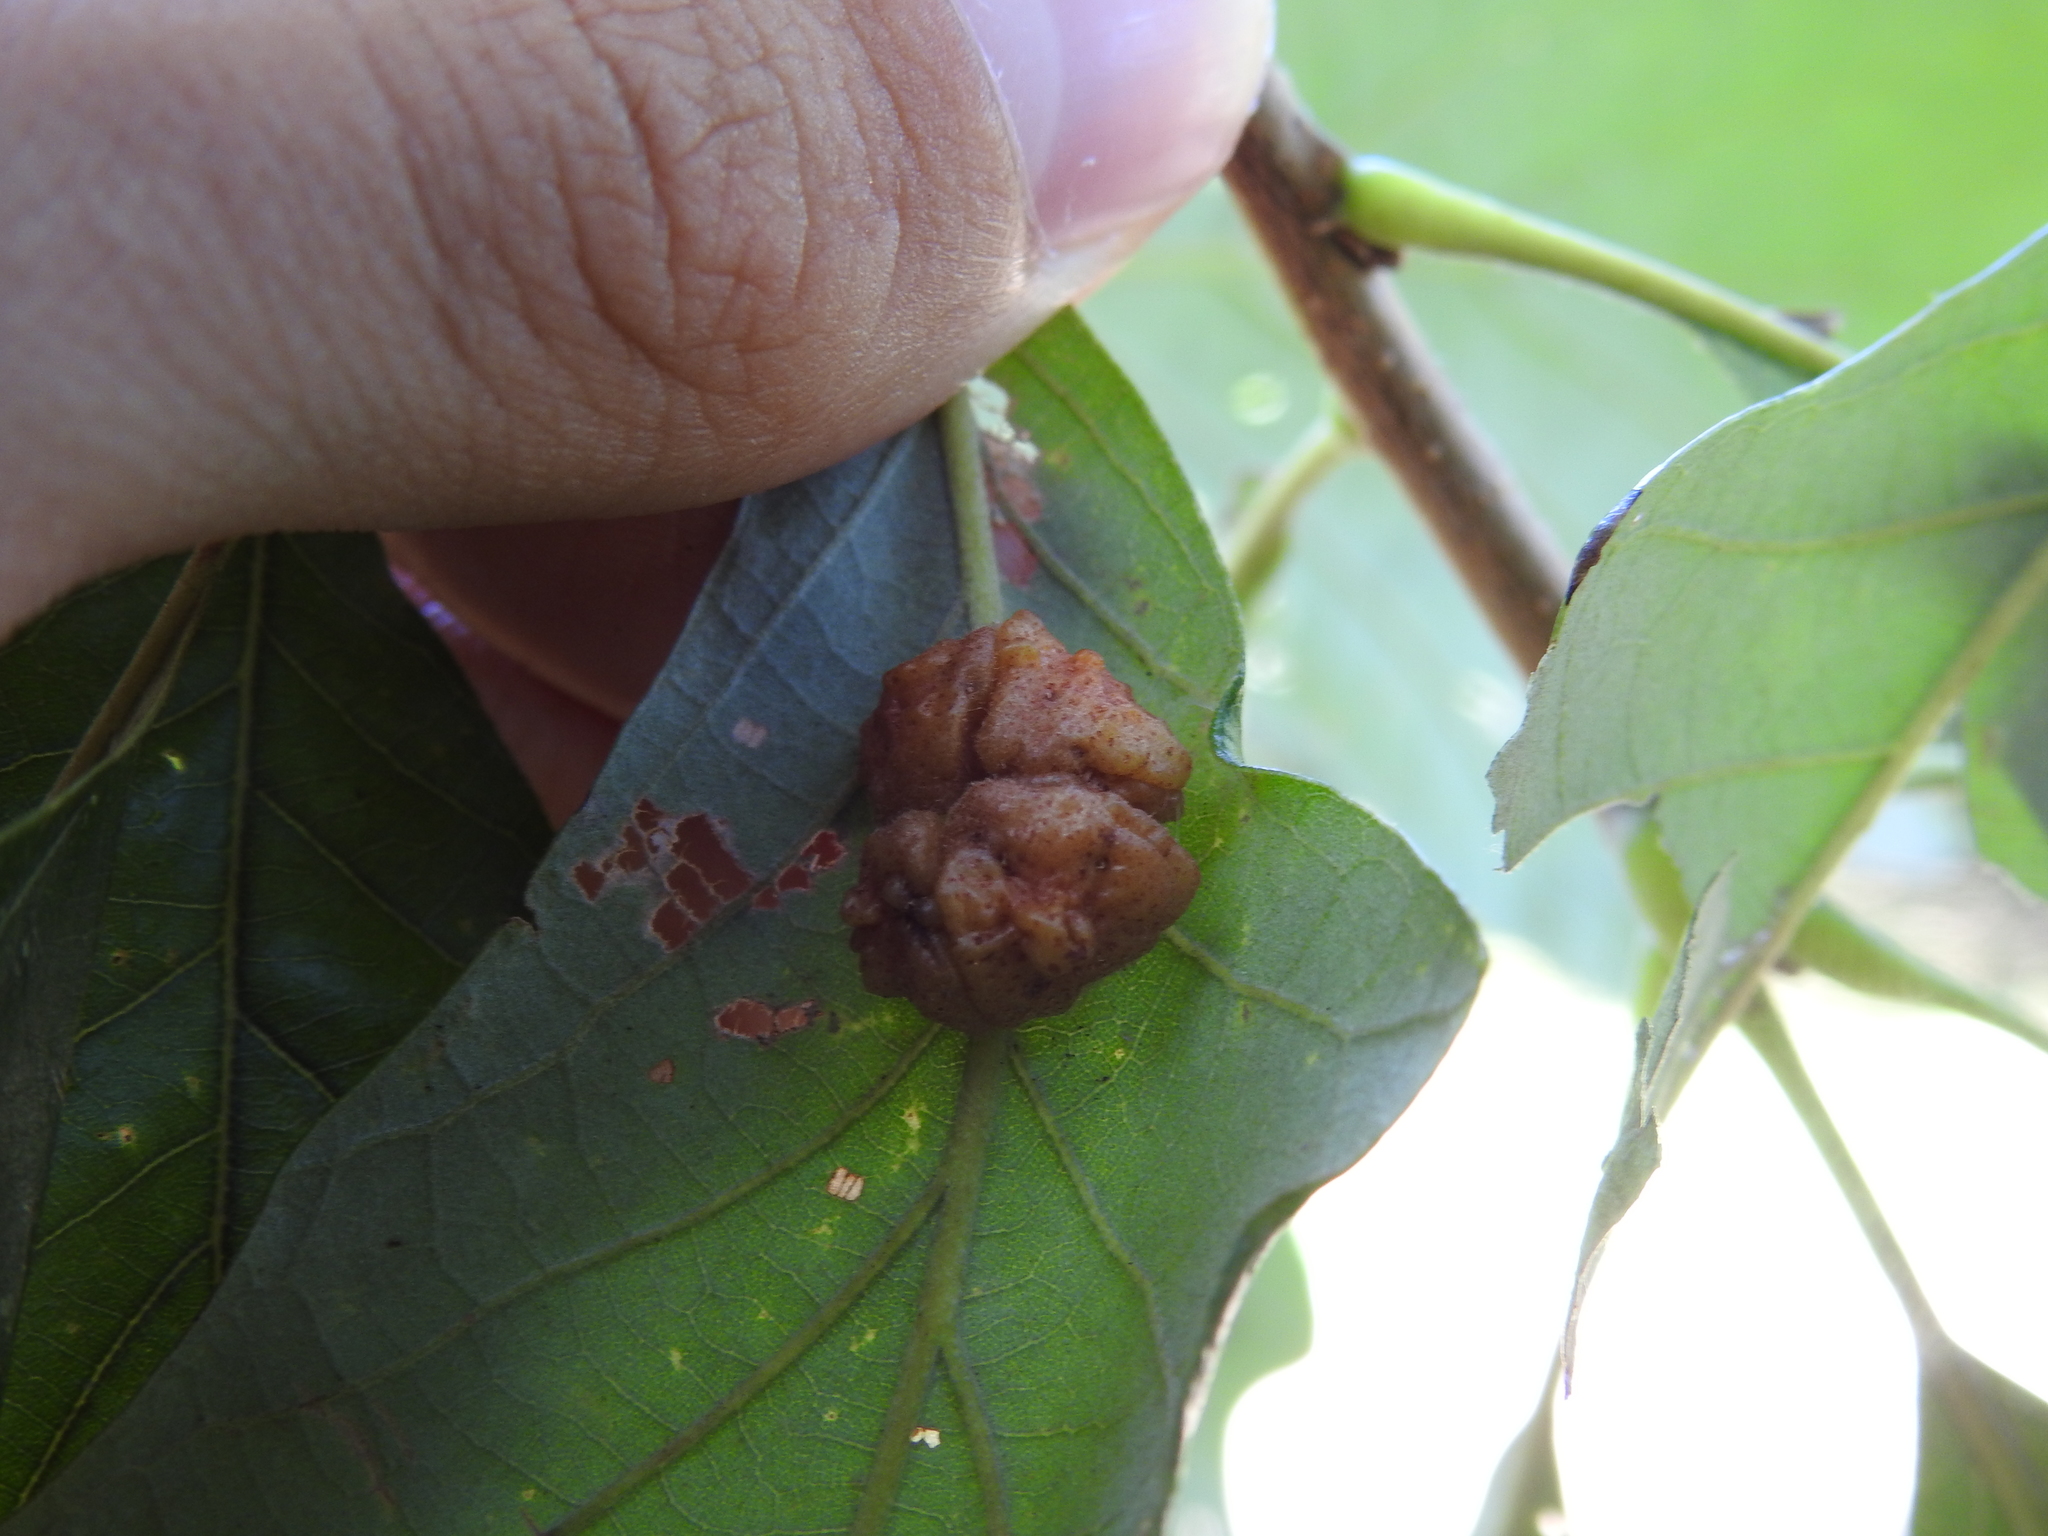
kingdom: Animalia
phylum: Arthropoda
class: Insecta
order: Hymenoptera
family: Cynipidae
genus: Andricus
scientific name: Andricus
